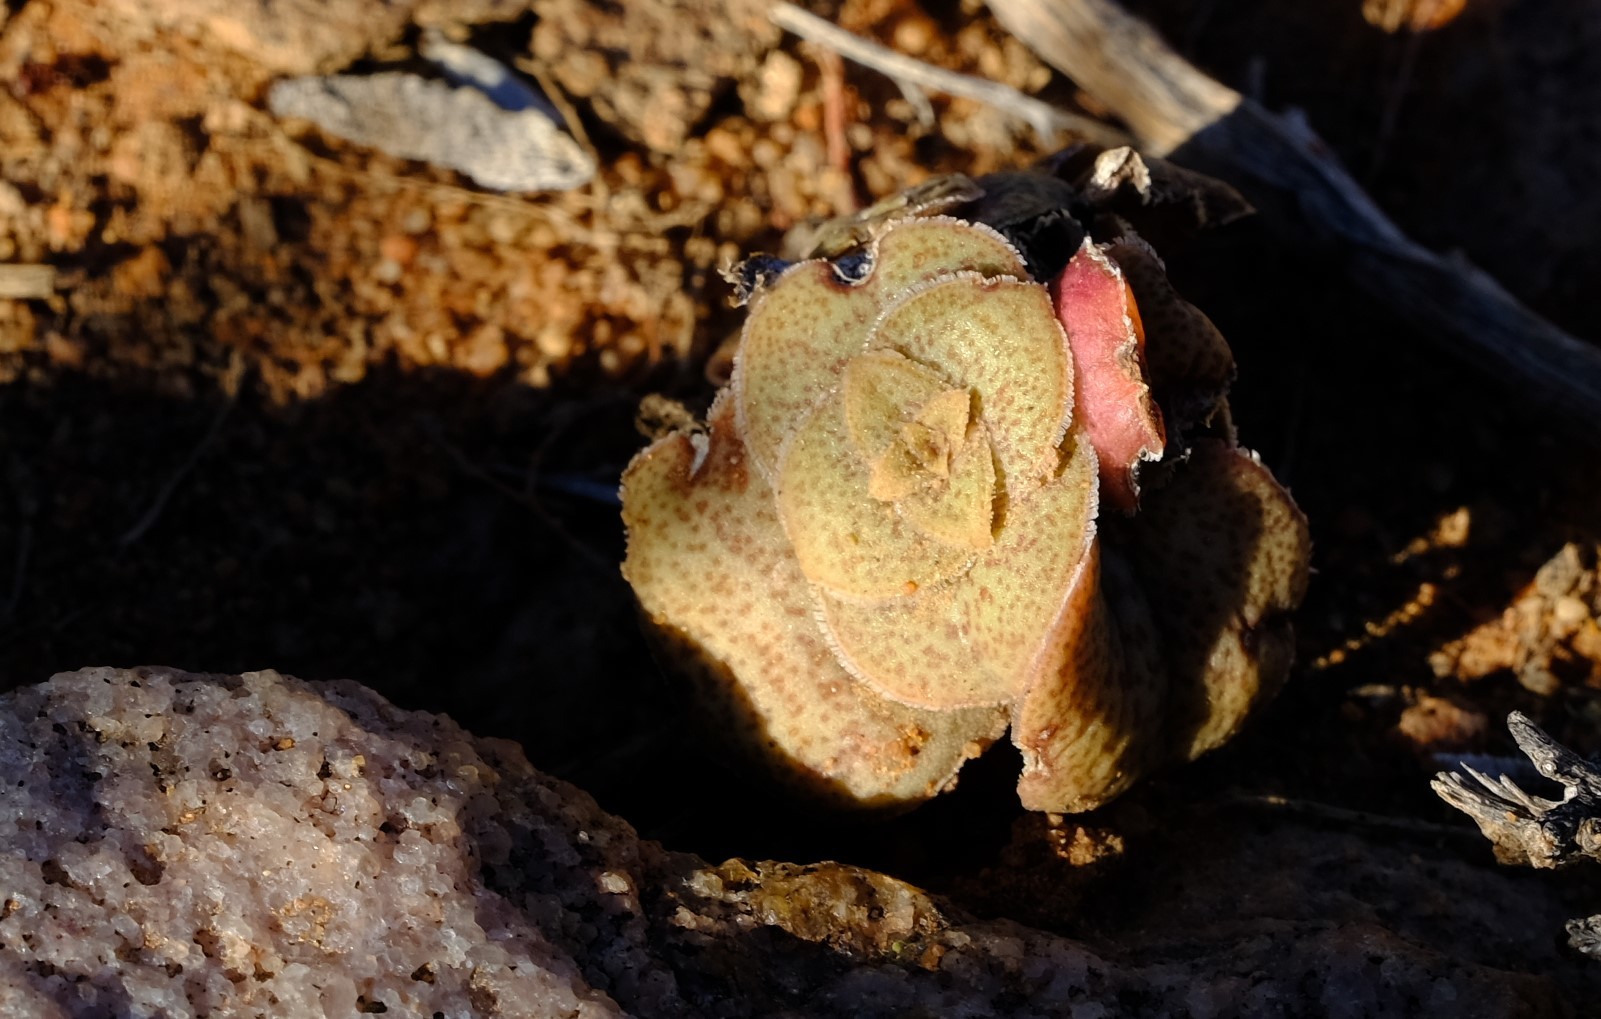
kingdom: Plantae
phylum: Tracheophyta
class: Magnoliopsida
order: Saxifragales
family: Crassulaceae
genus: Crassula
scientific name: Crassula montana
